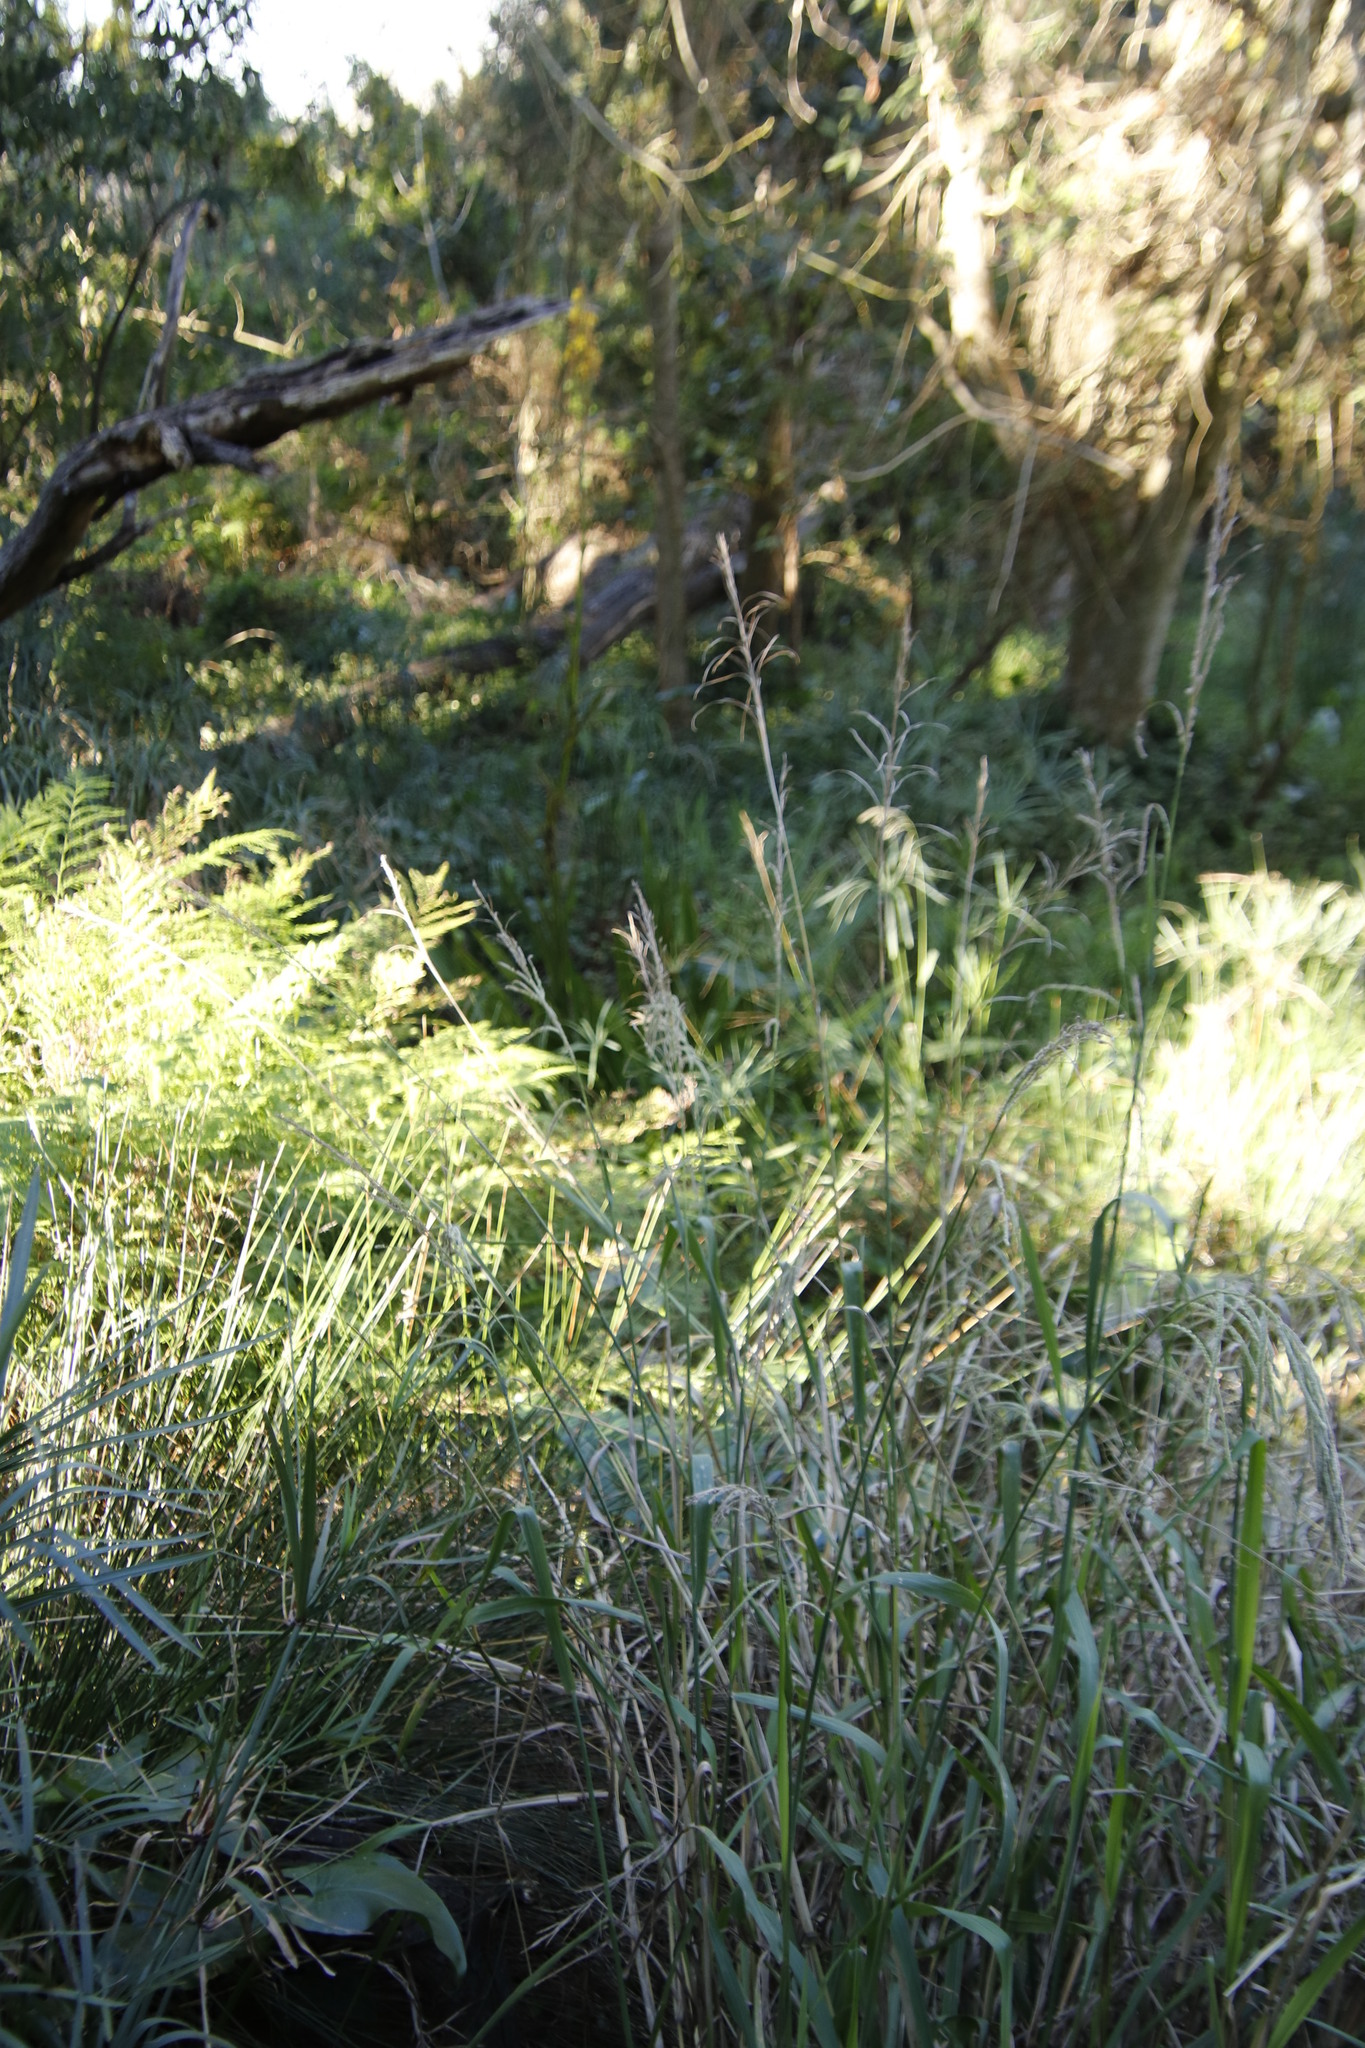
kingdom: Plantae
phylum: Tracheophyta
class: Liliopsida
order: Commelinales
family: Haemodoraceae
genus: Wachendorfia
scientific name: Wachendorfia thyrsiflora
